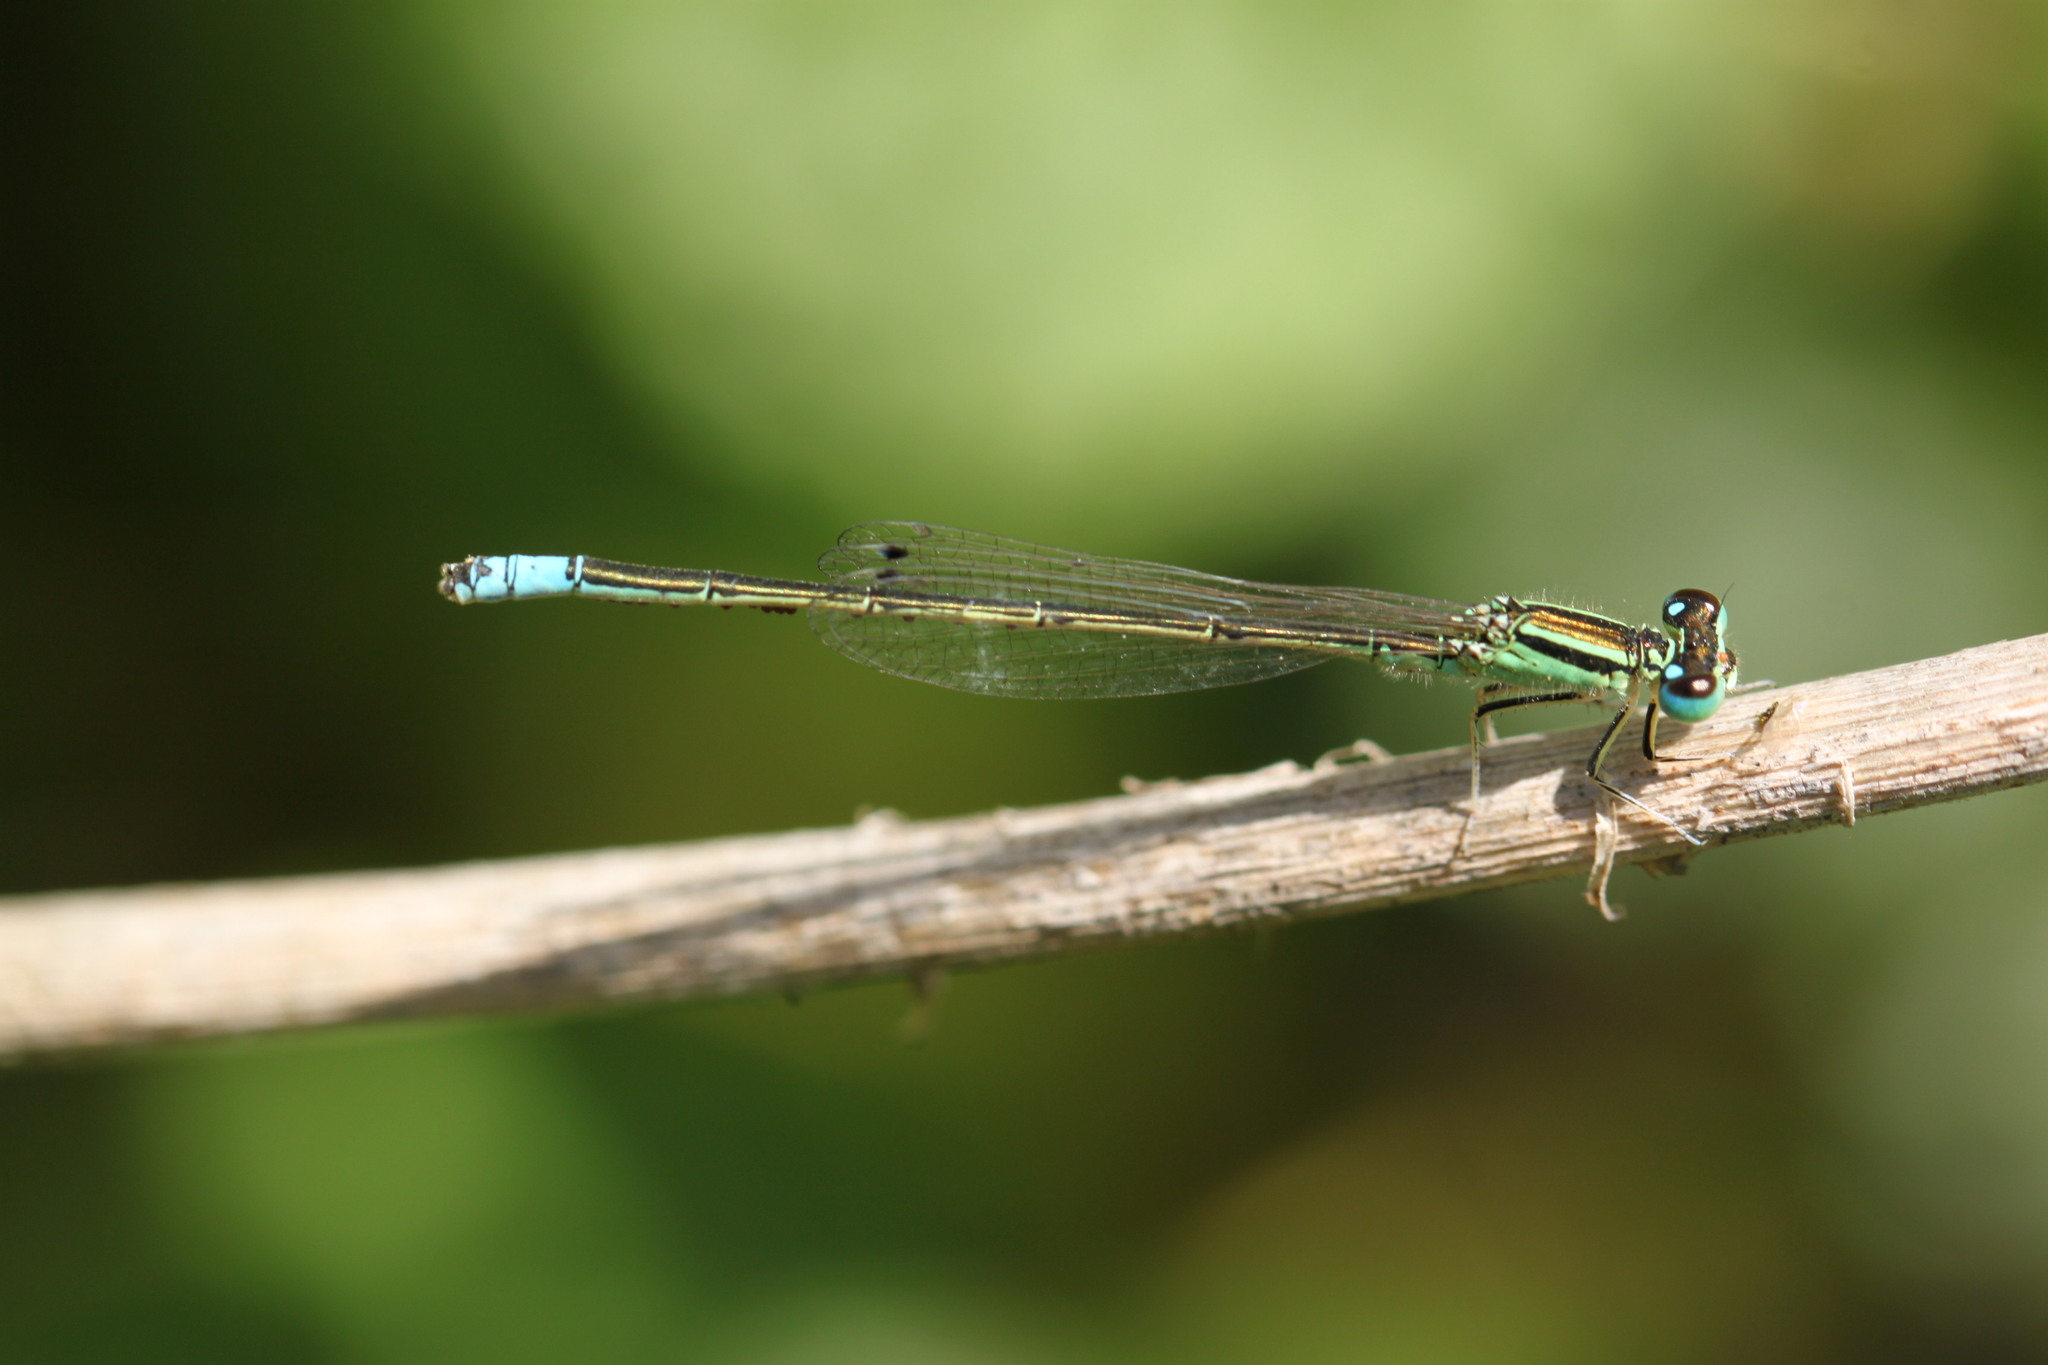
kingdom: Animalia
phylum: Arthropoda
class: Insecta
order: Odonata
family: Coenagrionidae
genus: Ischnura
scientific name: Ischnura intermedia
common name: Dumont's bluetail
